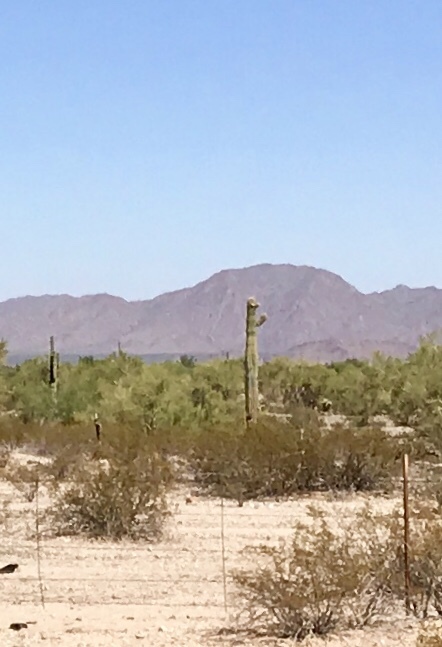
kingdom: Plantae
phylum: Tracheophyta
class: Magnoliopsida
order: Caryophyllales
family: Cactaceae
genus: Carnegiea
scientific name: Carnegiea gigantea
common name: Saguaro
